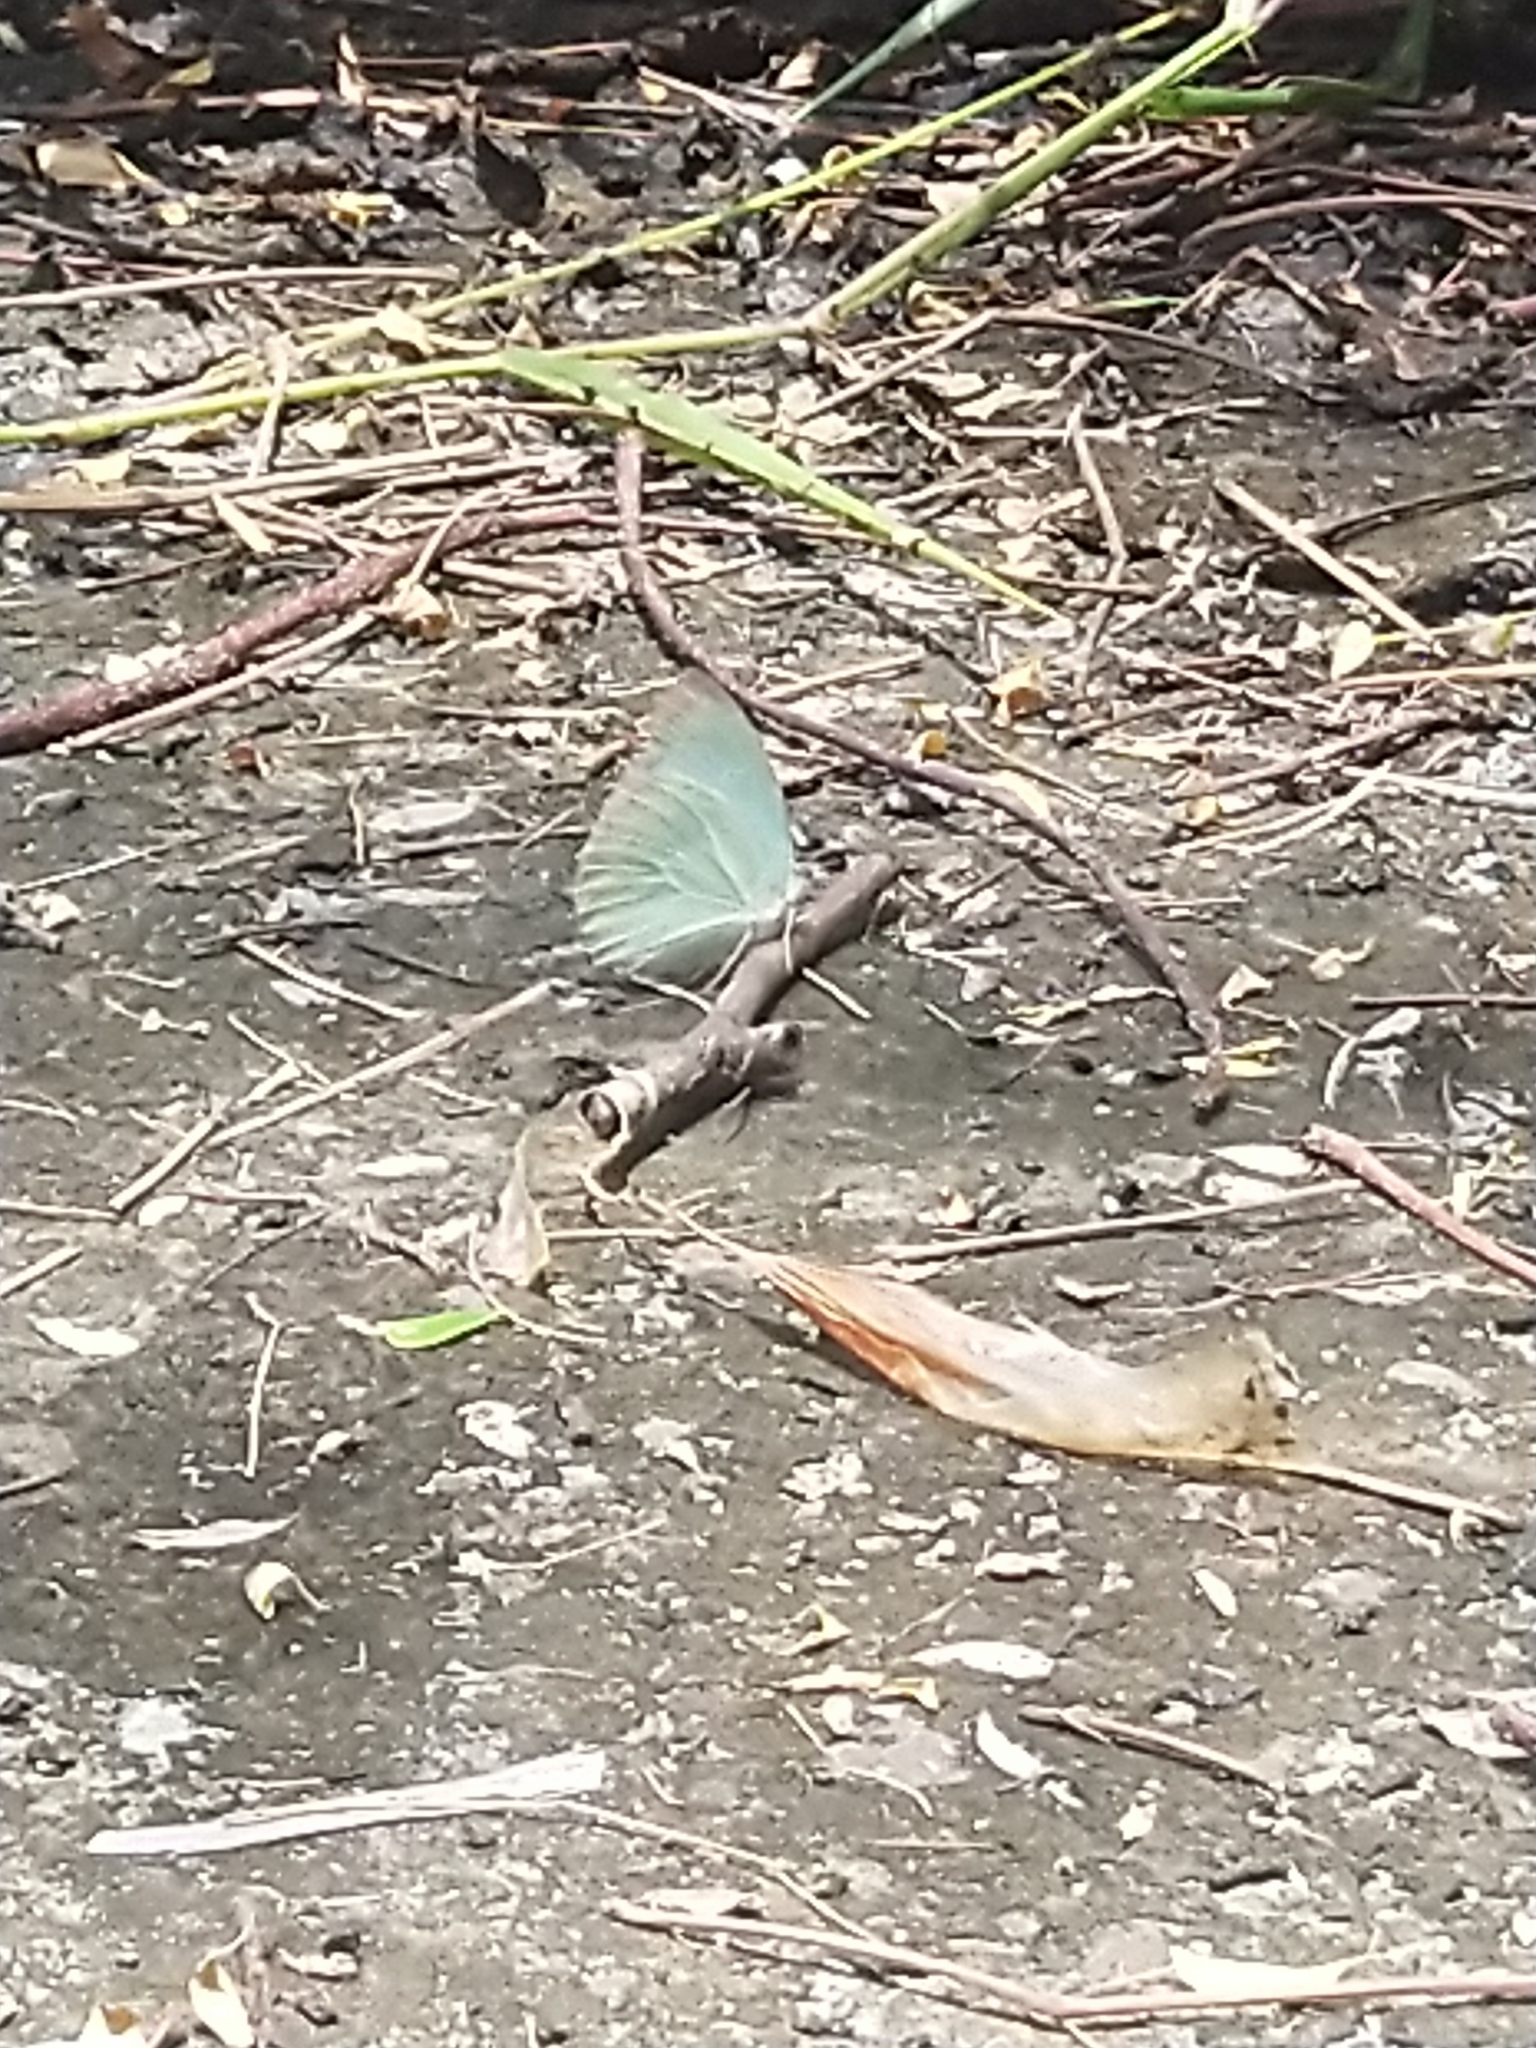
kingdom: Animalia
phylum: Arthropoda
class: Insecta
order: Lepidoptera
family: Pieridae
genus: Catopsilia
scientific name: Catopsilia pyranthe
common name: Mottled emigrant
